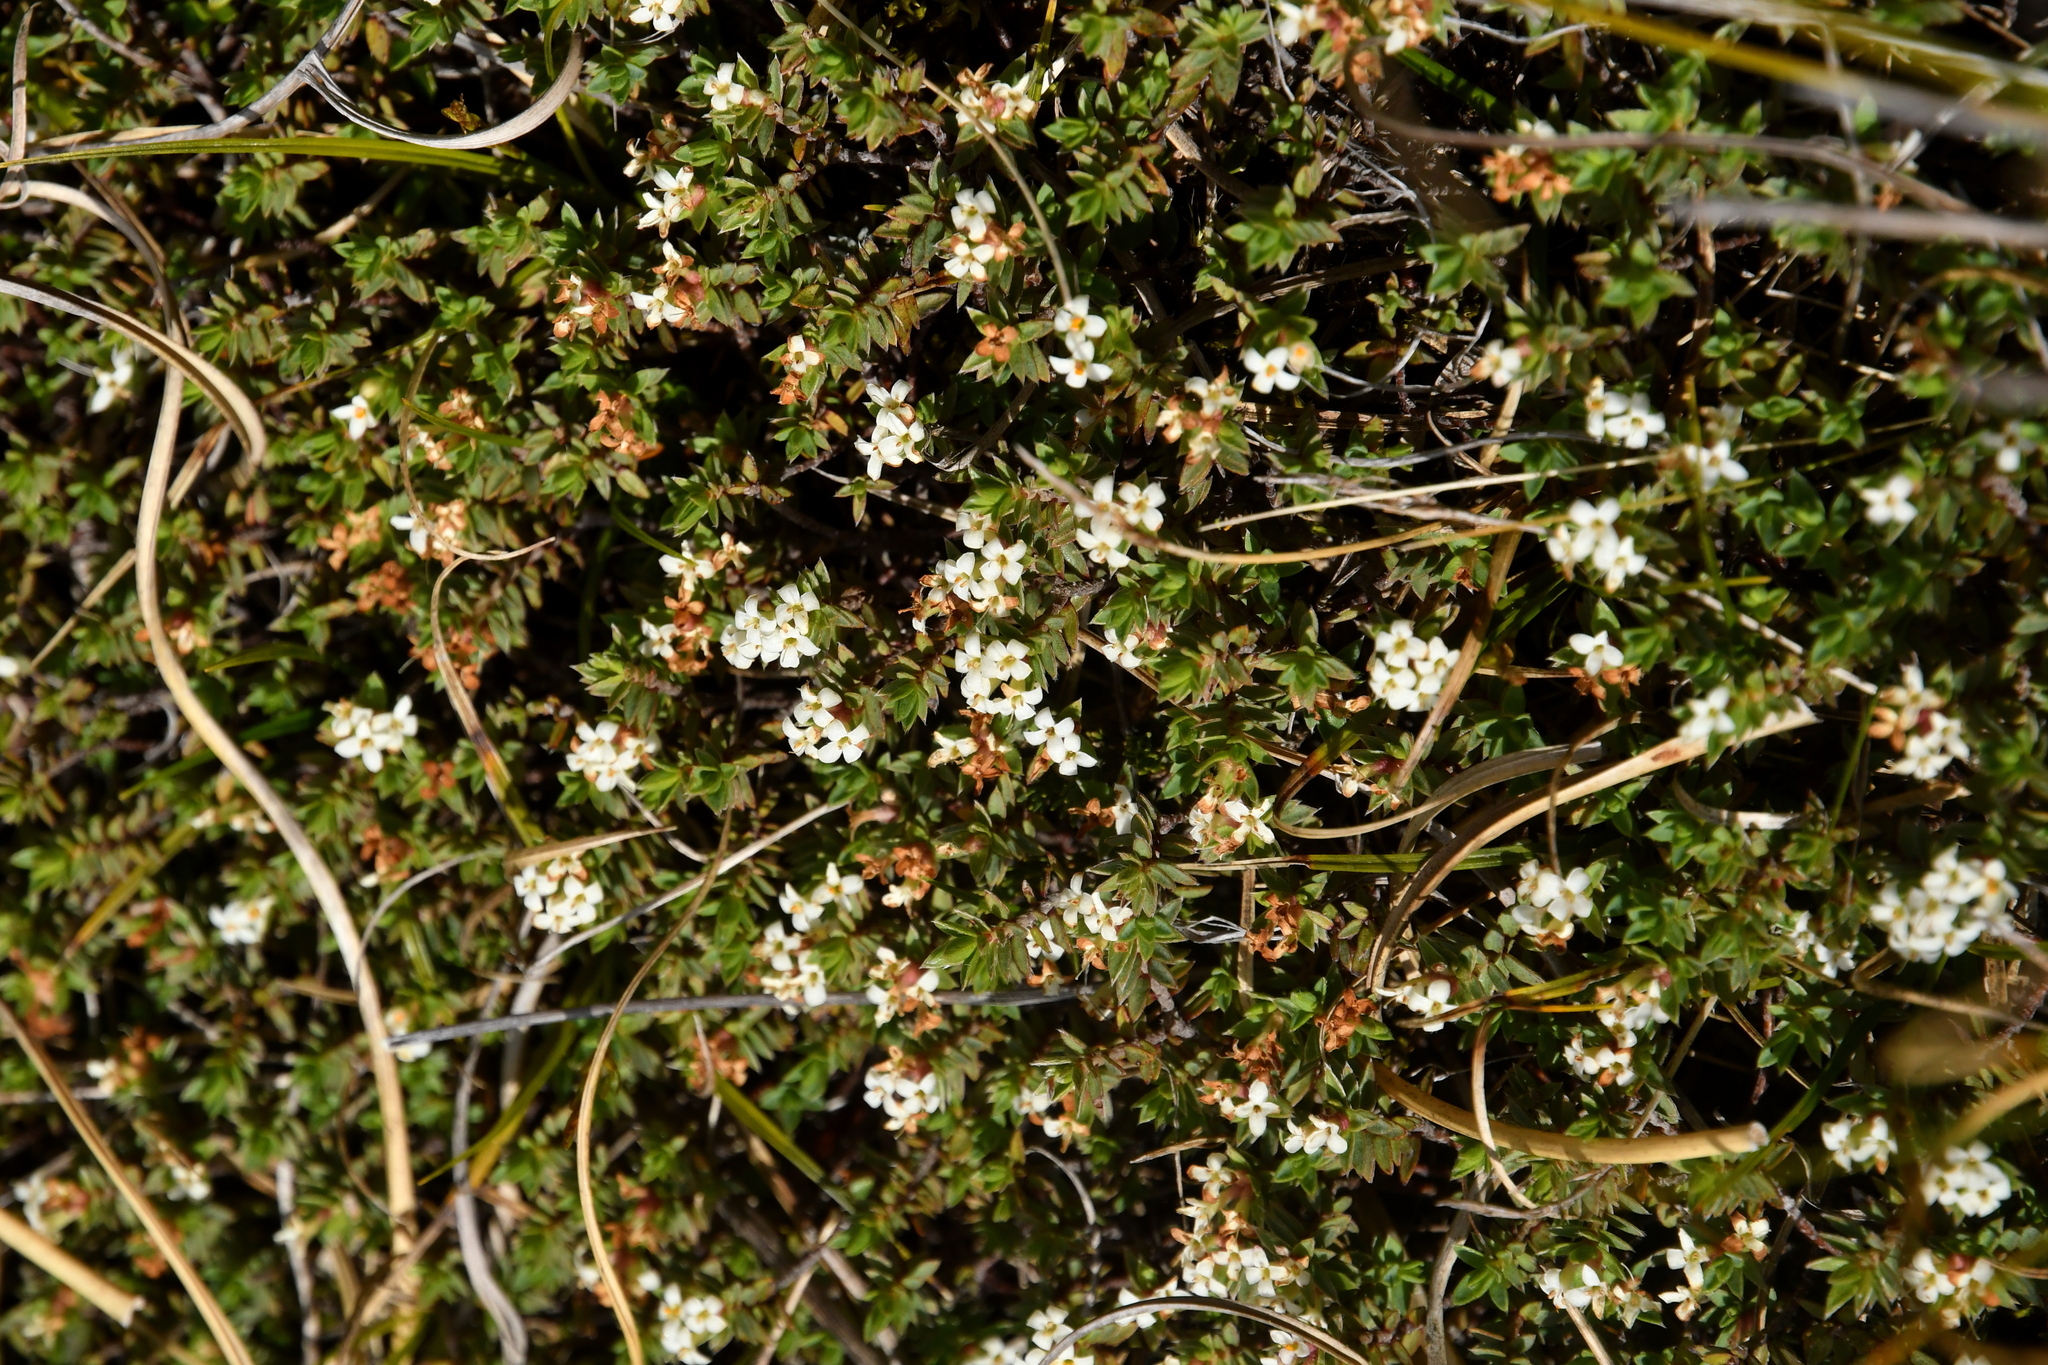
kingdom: Plantae
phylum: Tracheophyta
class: Magnoliopsida
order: Malvales
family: Thymelaeaceae
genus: Pimelea
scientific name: Pimelea oreophila
